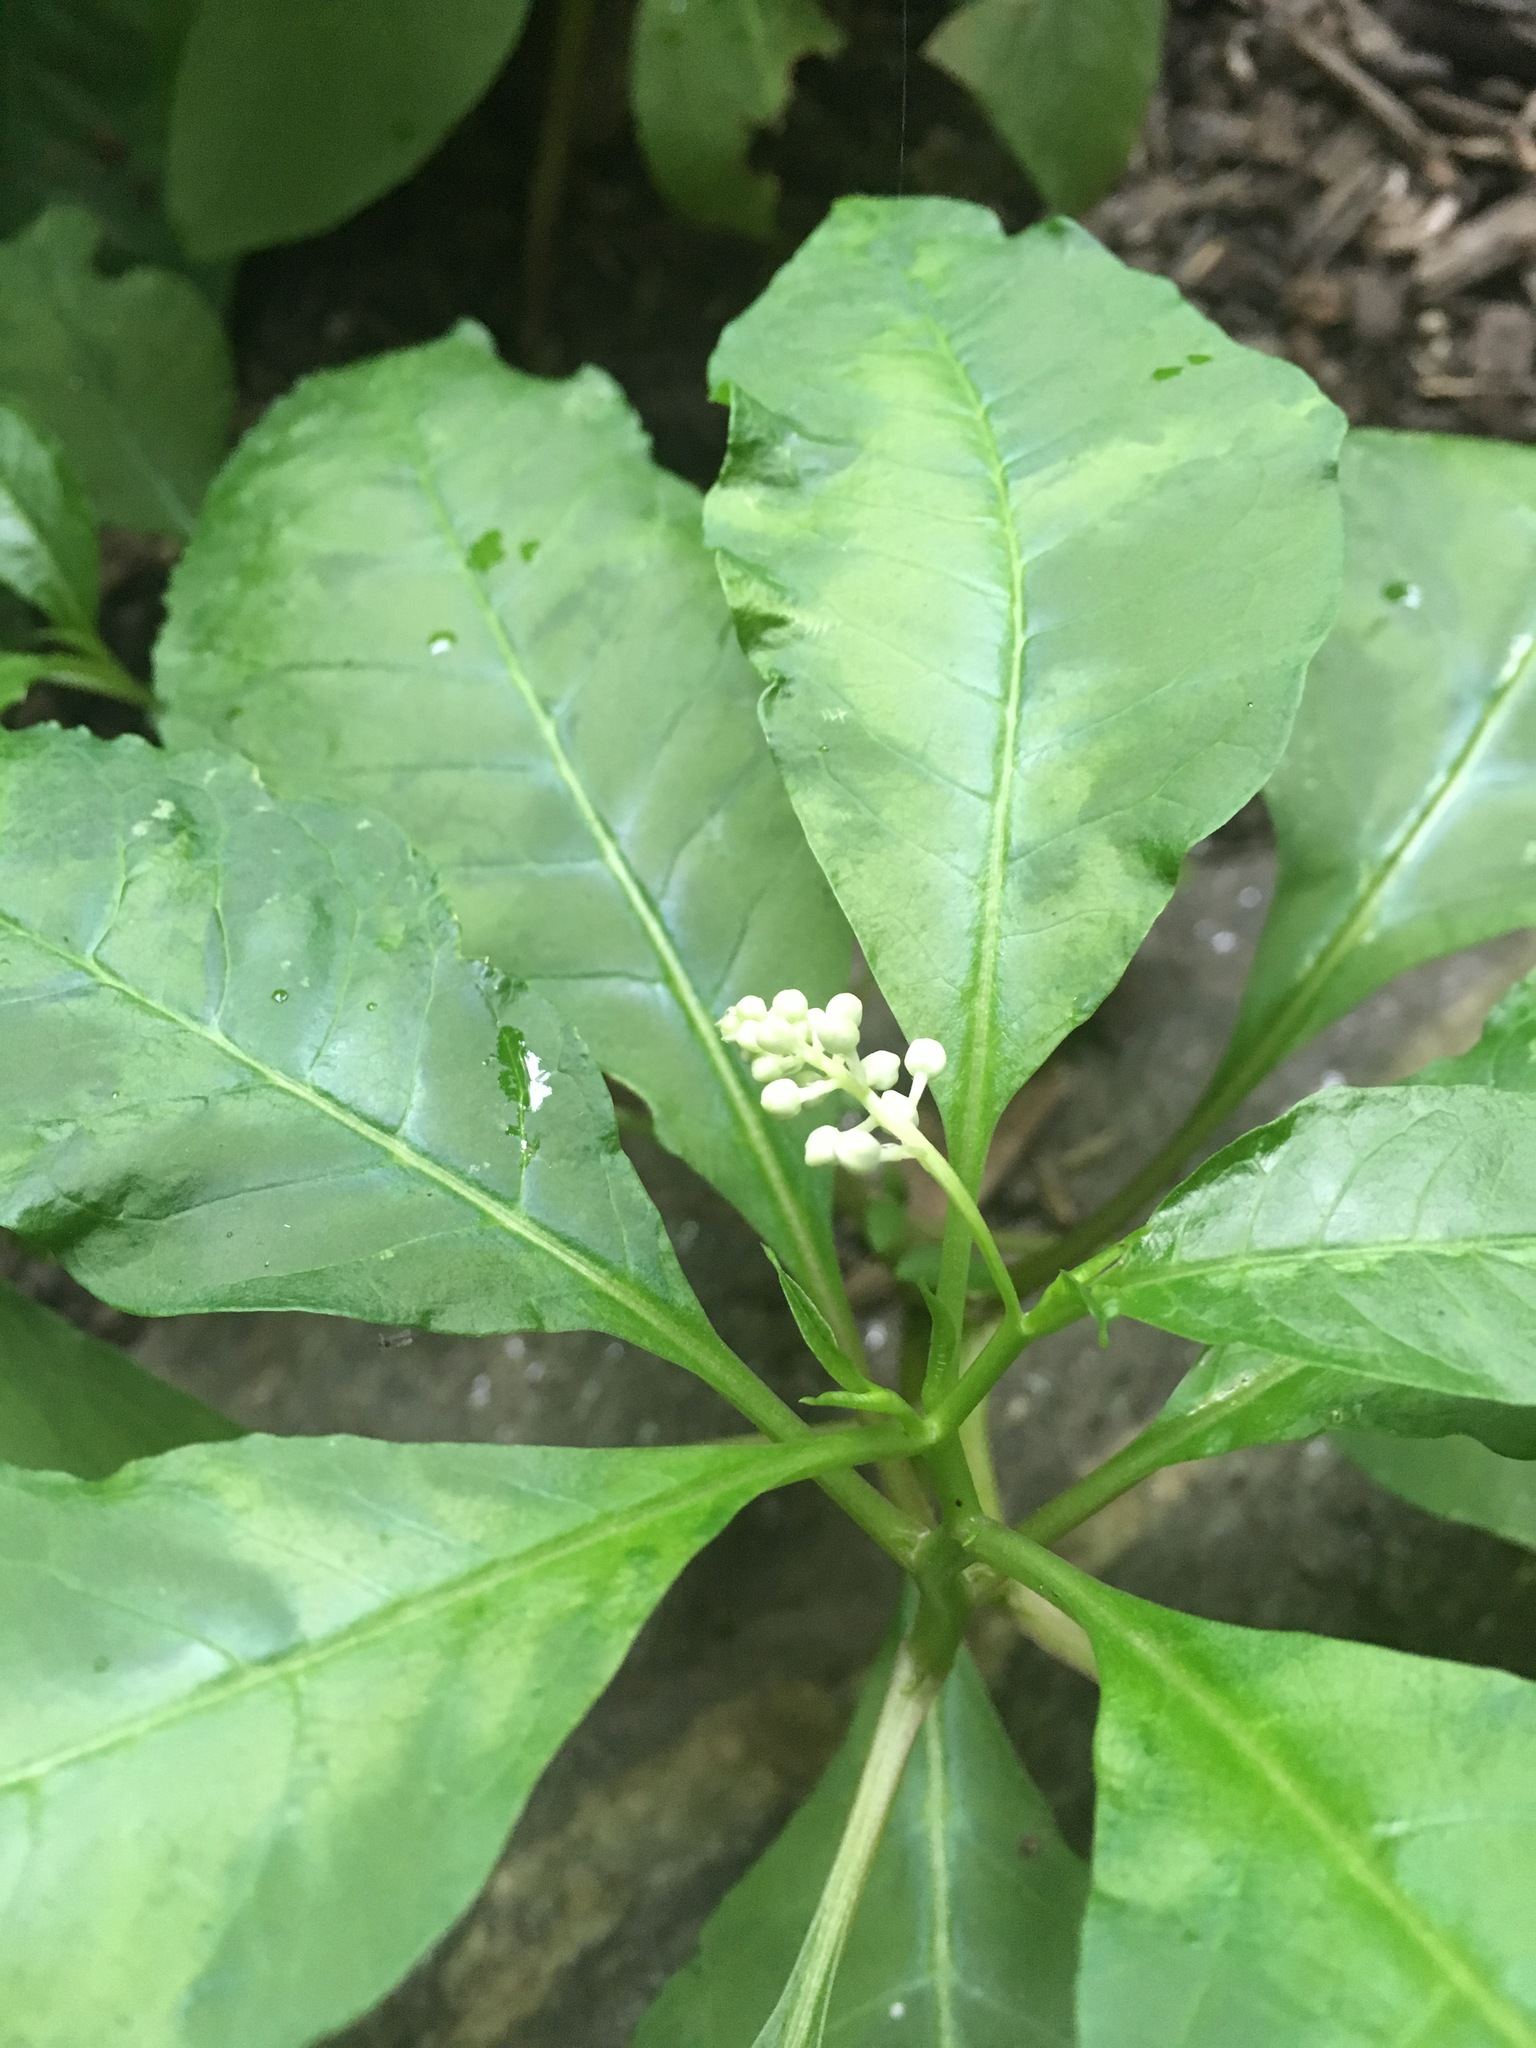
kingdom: Plantae
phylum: Tracheophyta
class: Magnoliopsida
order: Caryophyllales
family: Phytolaccaceae
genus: Phytolacca
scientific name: Phytolacca americana
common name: American pokeweed
